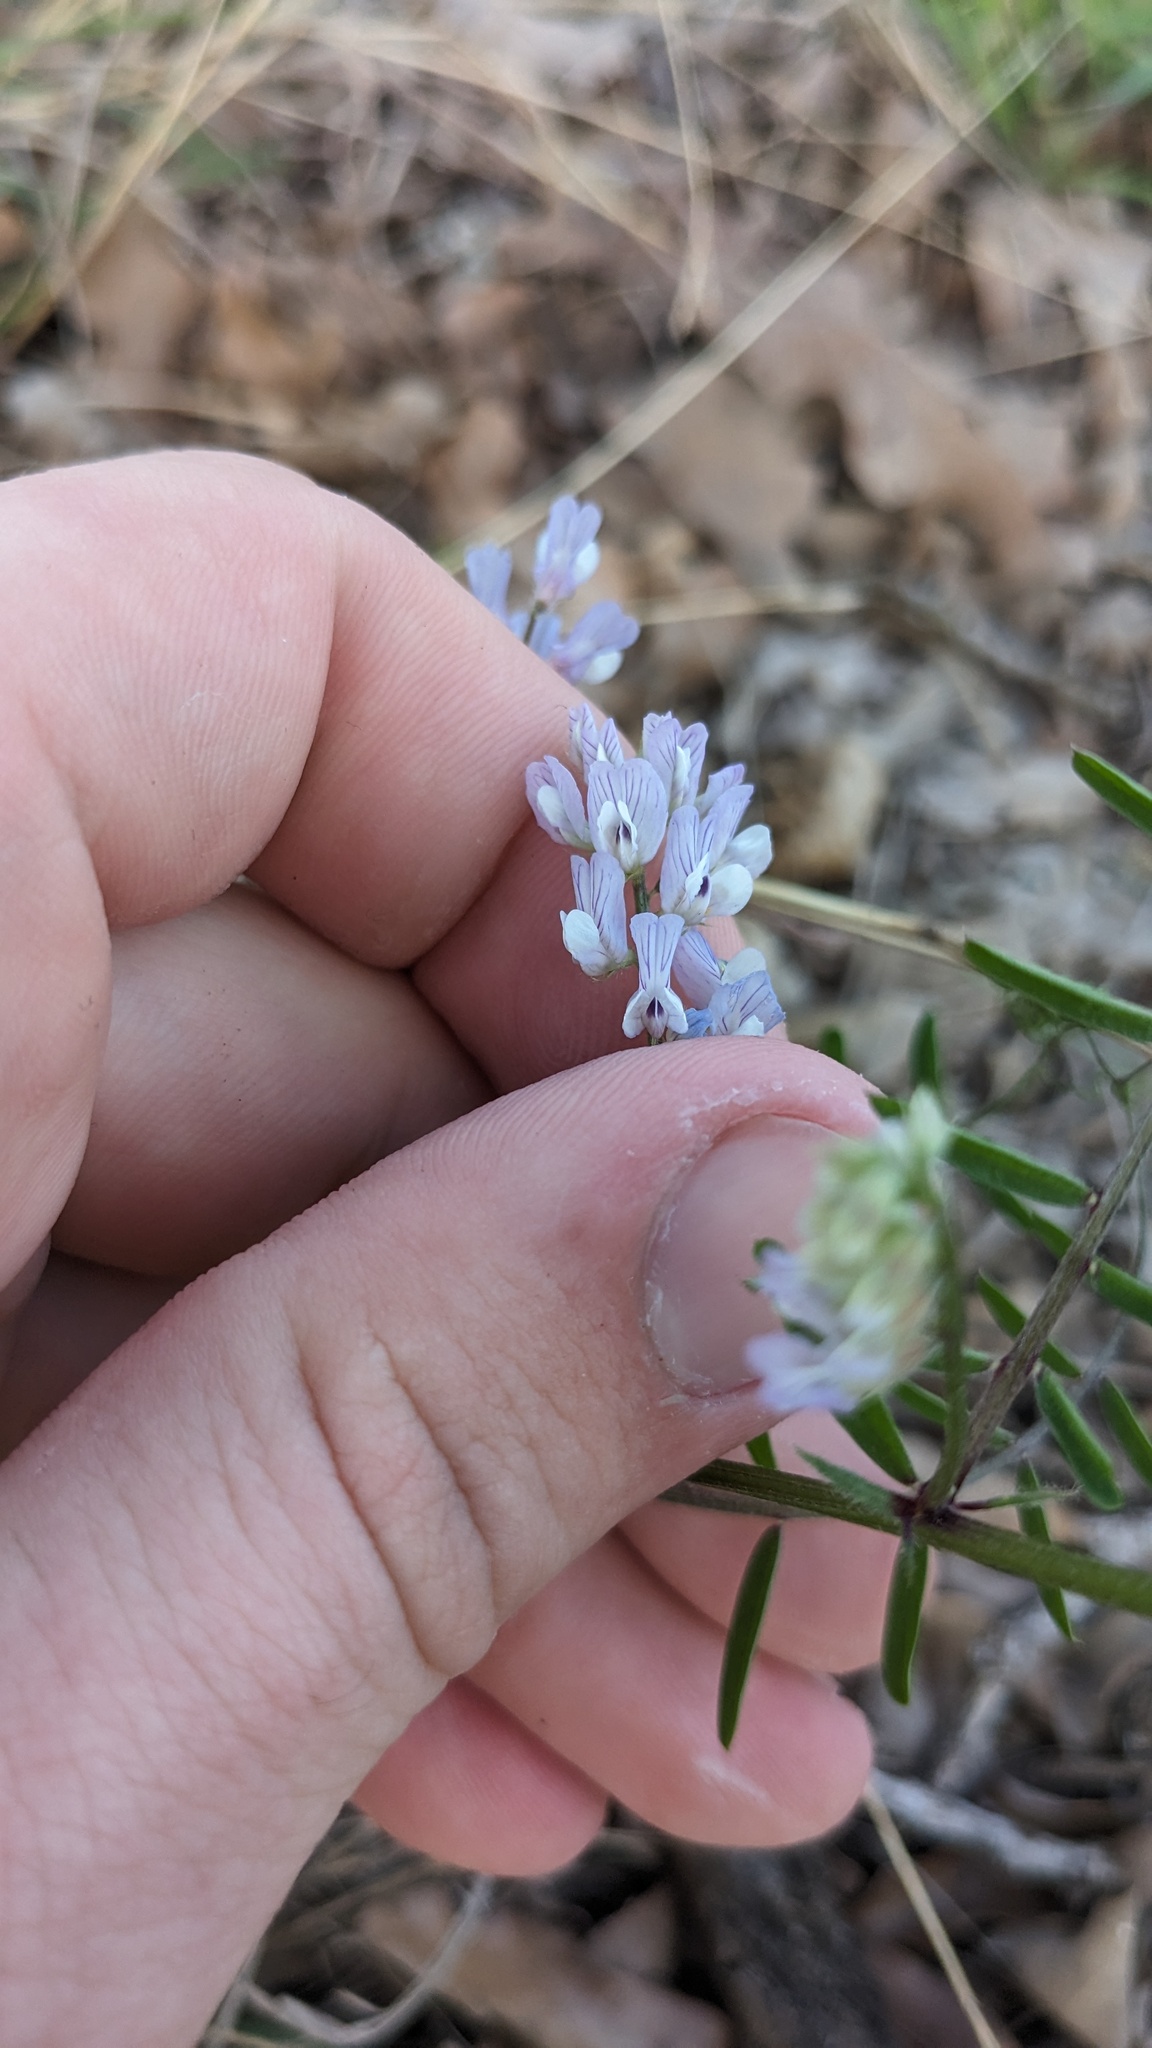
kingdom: Plantae
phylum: Tracheophyta
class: Magnoliopsida
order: Fabales
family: Fabaceae
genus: Vicia
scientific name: Vicia ludoviciana
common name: Louisiana vetch
